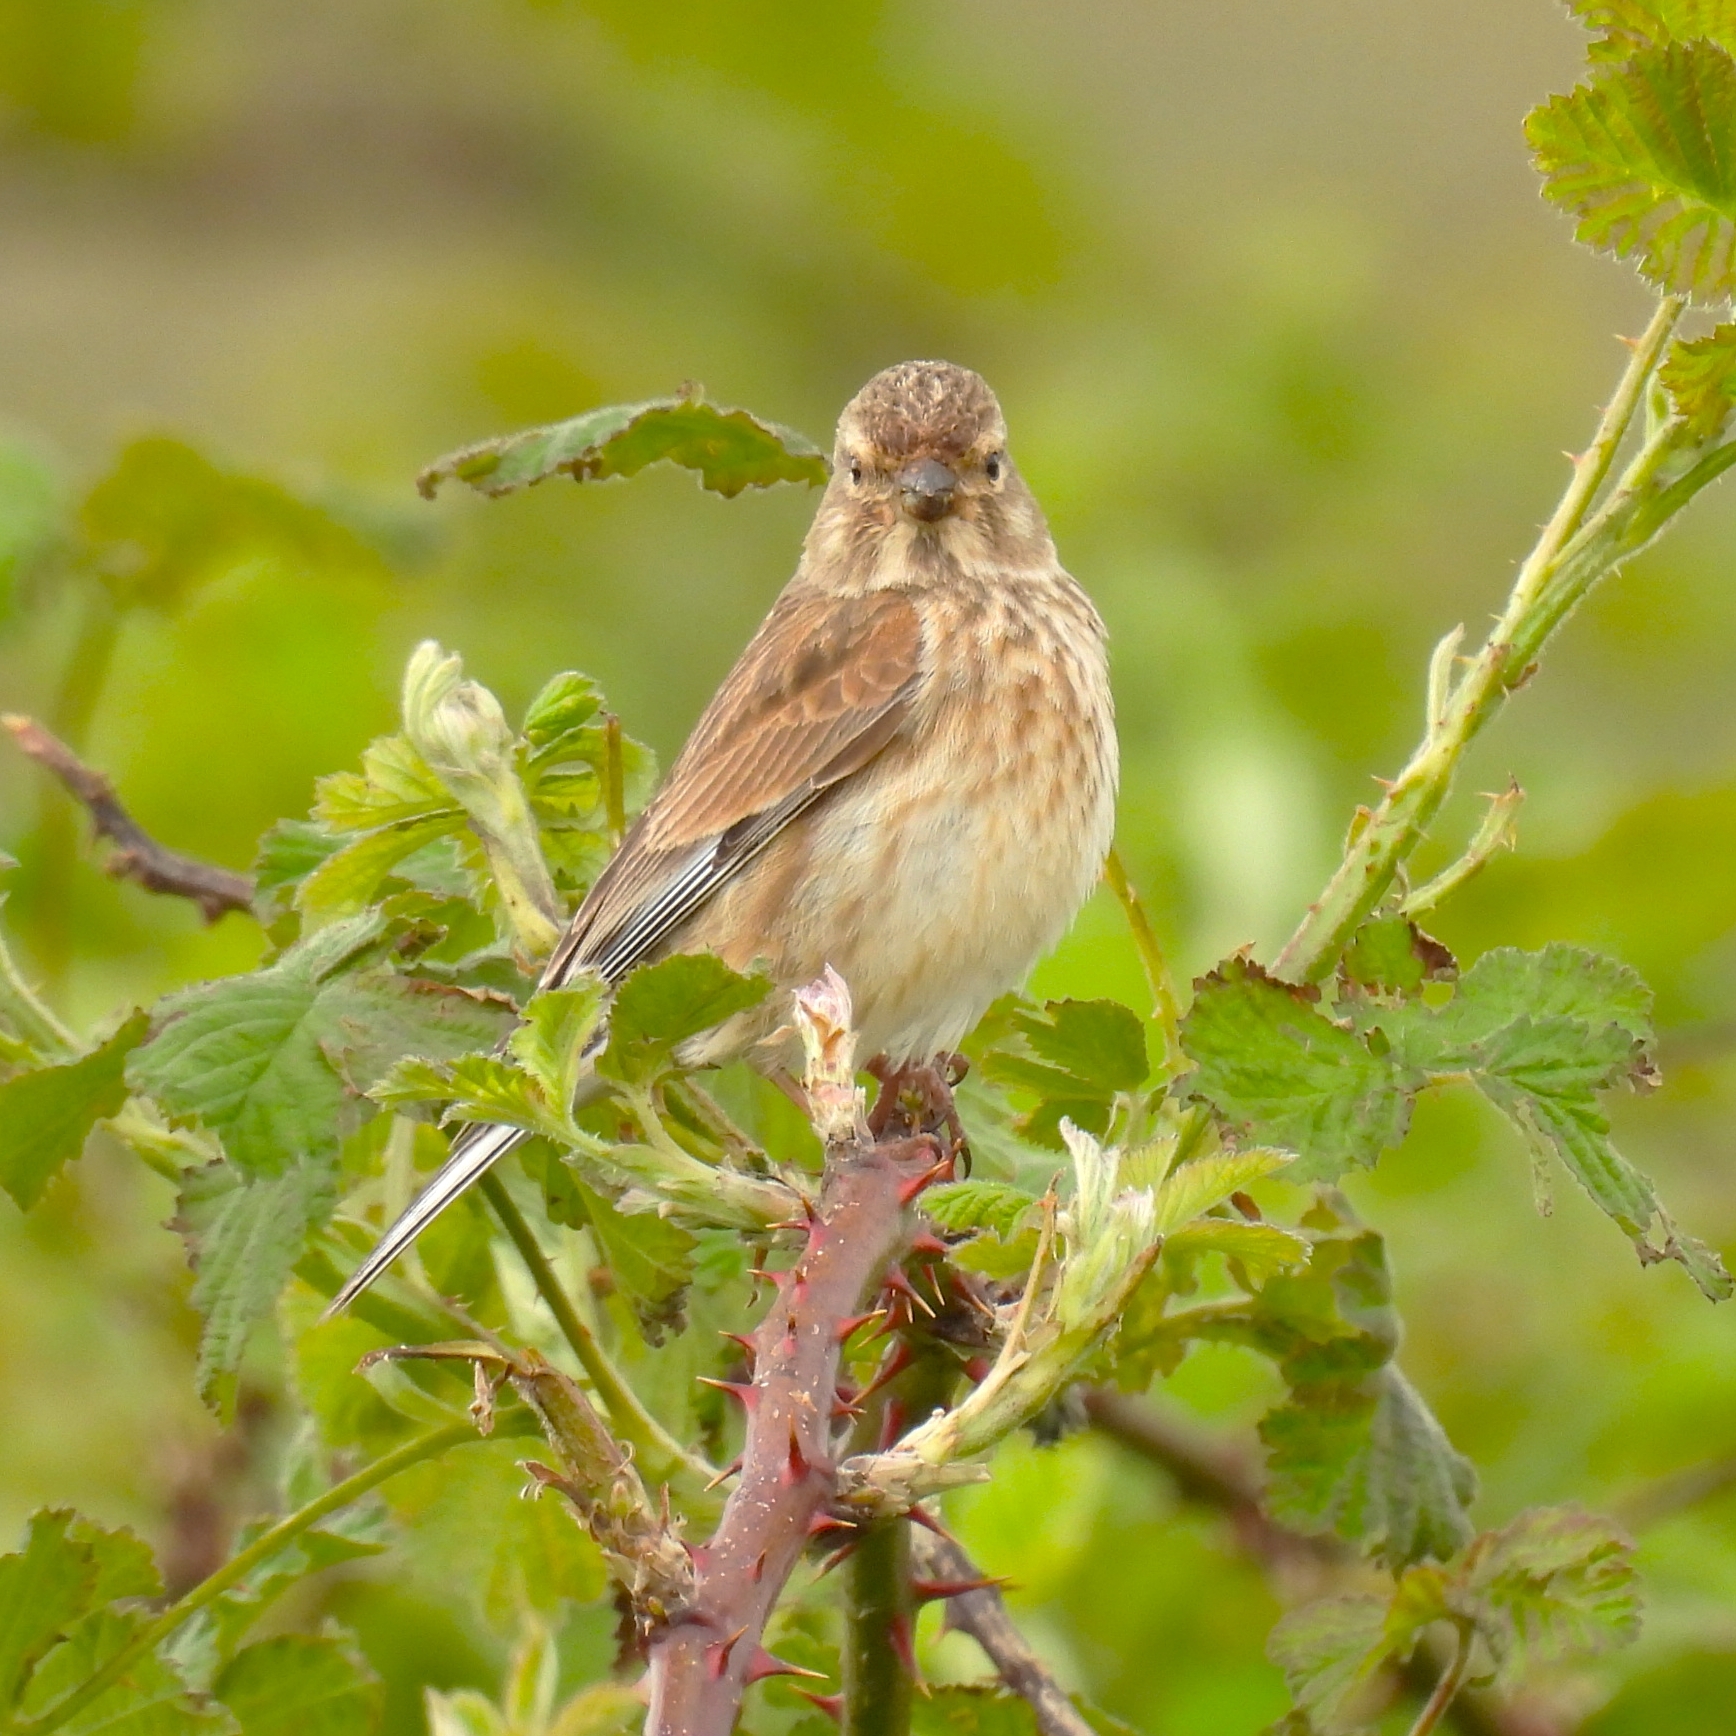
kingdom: Animalia
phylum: Chordata
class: Aves
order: Passeriformes
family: Fringillidae
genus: Linaria
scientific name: Linaria cannabina
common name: Common linnet
